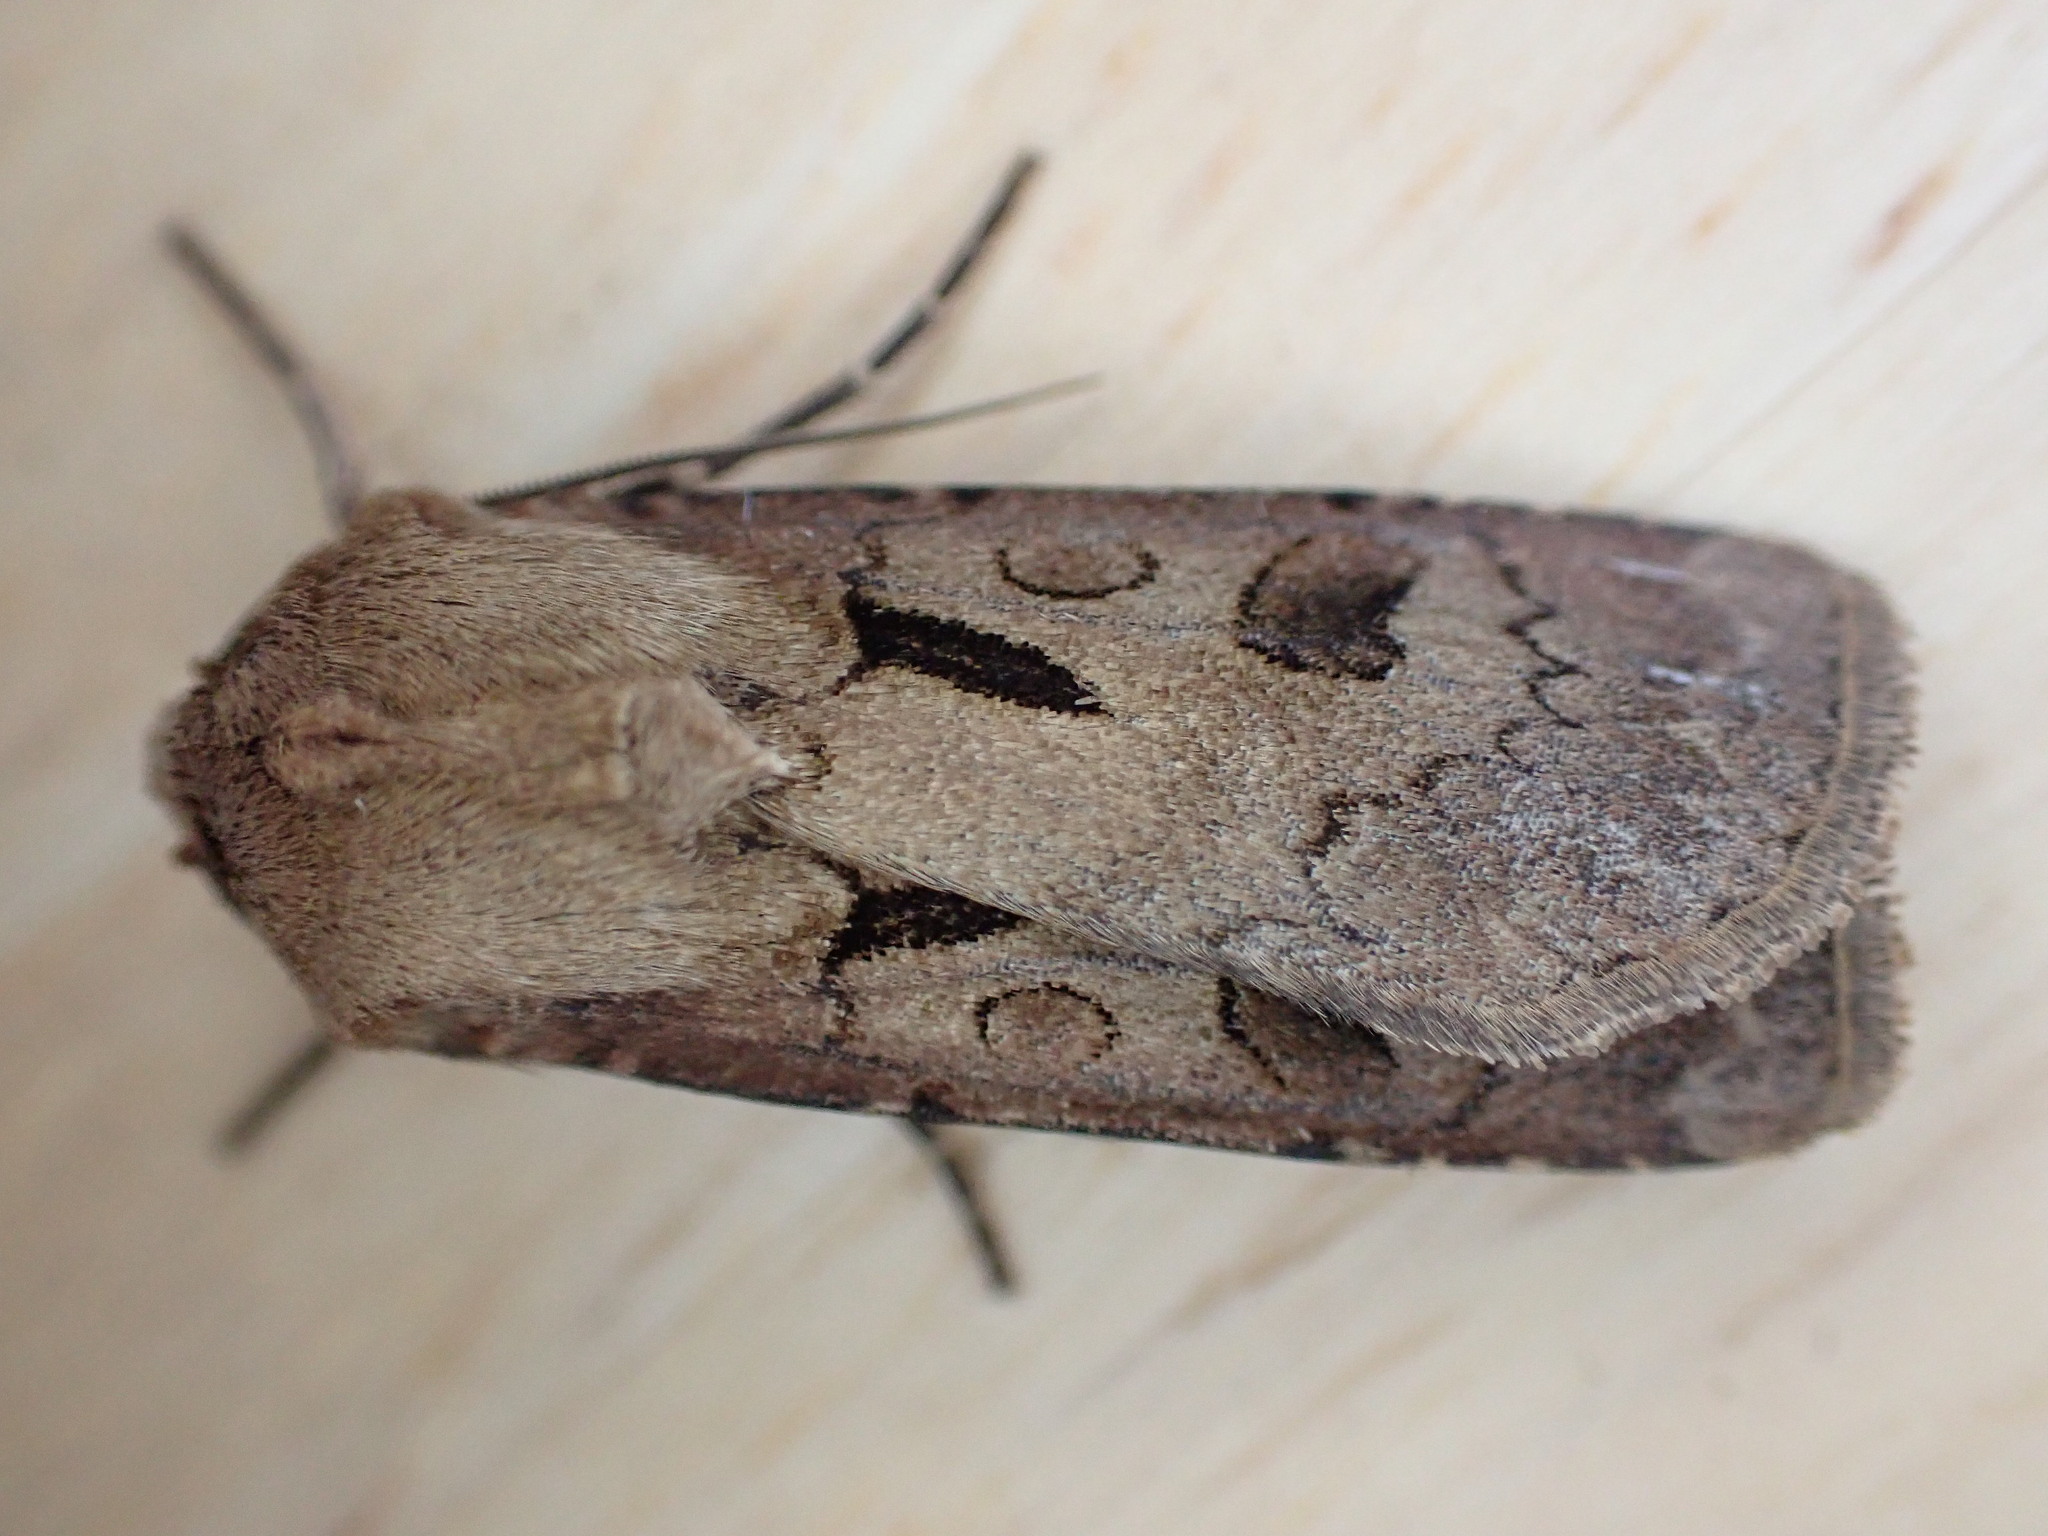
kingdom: Animalia
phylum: Arthropoda
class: Insecta
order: Lepidoptera
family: Noctuidae
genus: Agrotis
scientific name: Agrotis exclamationis
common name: Heart and dart
